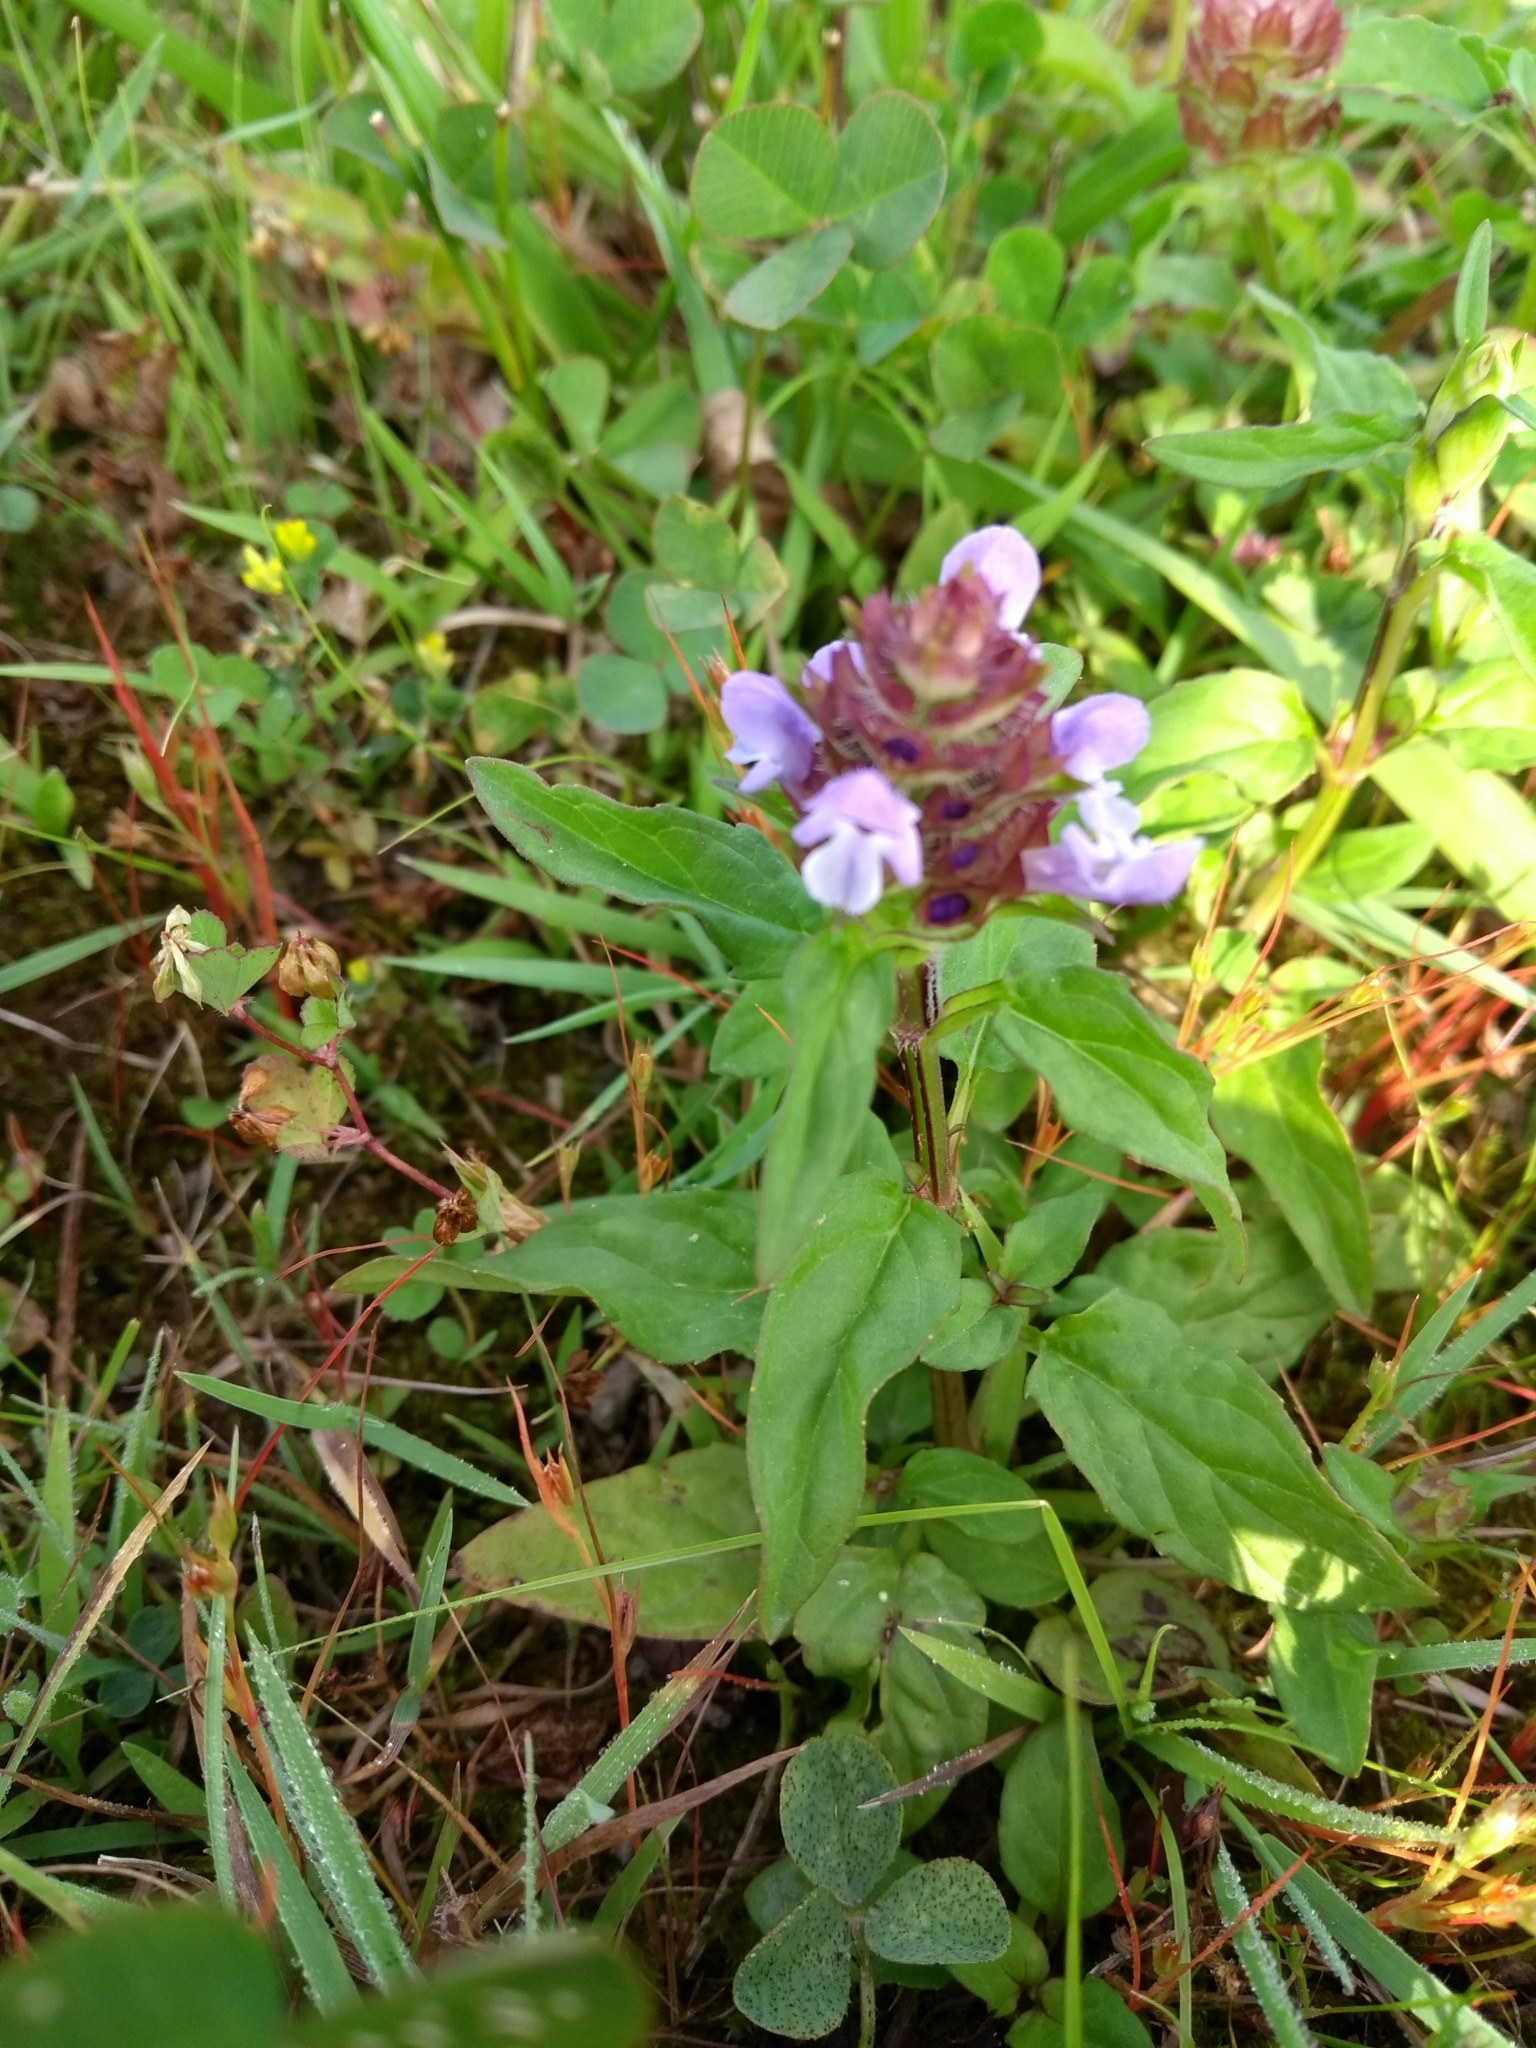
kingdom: Plantae
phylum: Tracheophyta
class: Magnoliopsida
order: Lamiales
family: Lamiaceae
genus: Prunella
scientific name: Prunella vulgaris
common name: Heal-all
